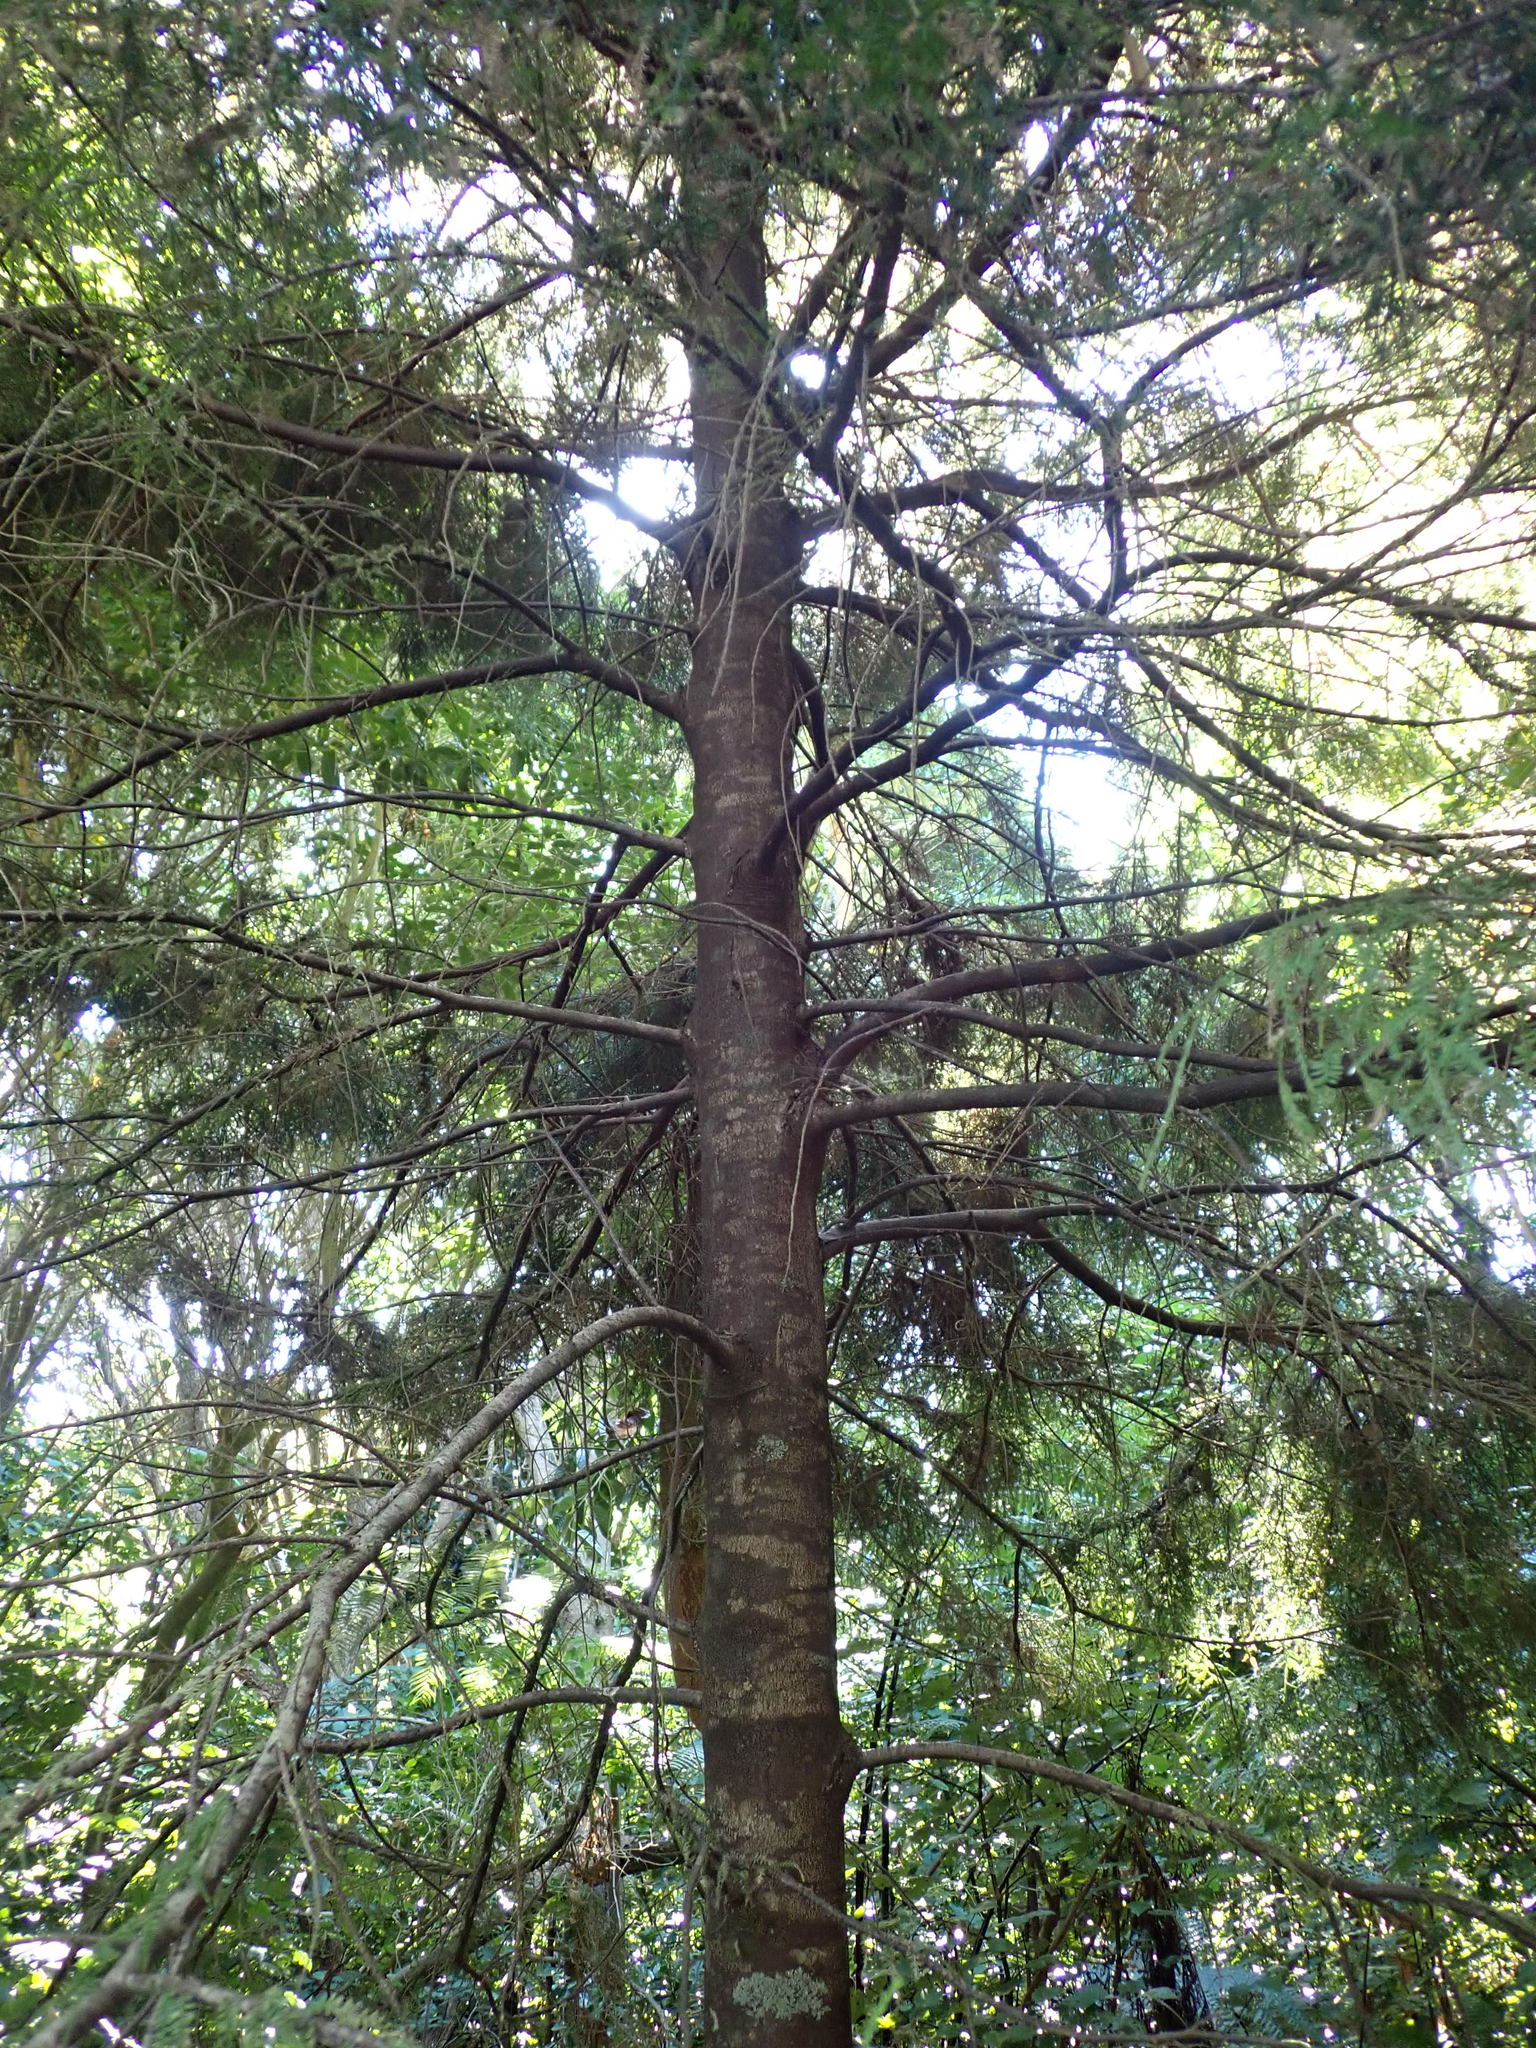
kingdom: Plantae
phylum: Tracheophyta
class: Pinopsida
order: Pinales
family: Podocarpaceae
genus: Dacrycarpus
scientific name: Dacrycarpus dacrydioides
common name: White pine
